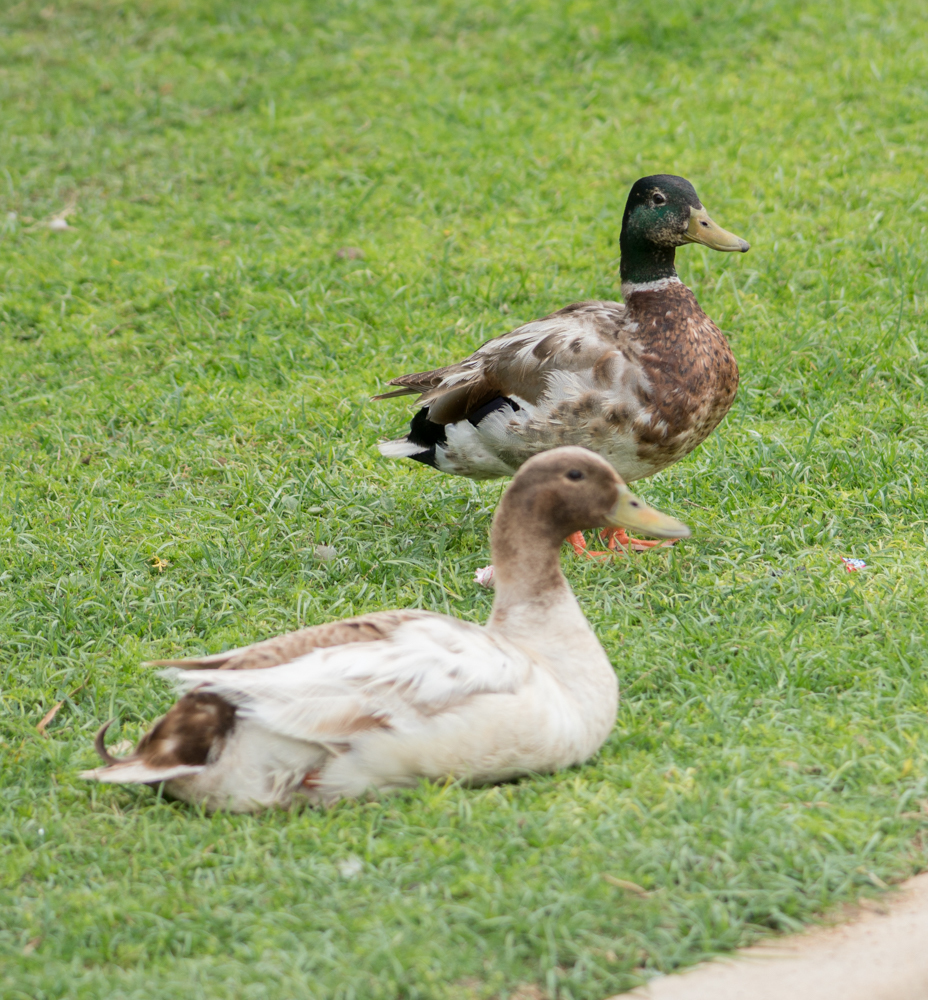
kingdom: Animalia
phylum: Chordata
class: Aves
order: Anseriformes
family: Anatidae
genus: Anas
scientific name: Anas platyrhynchos
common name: Mallard
